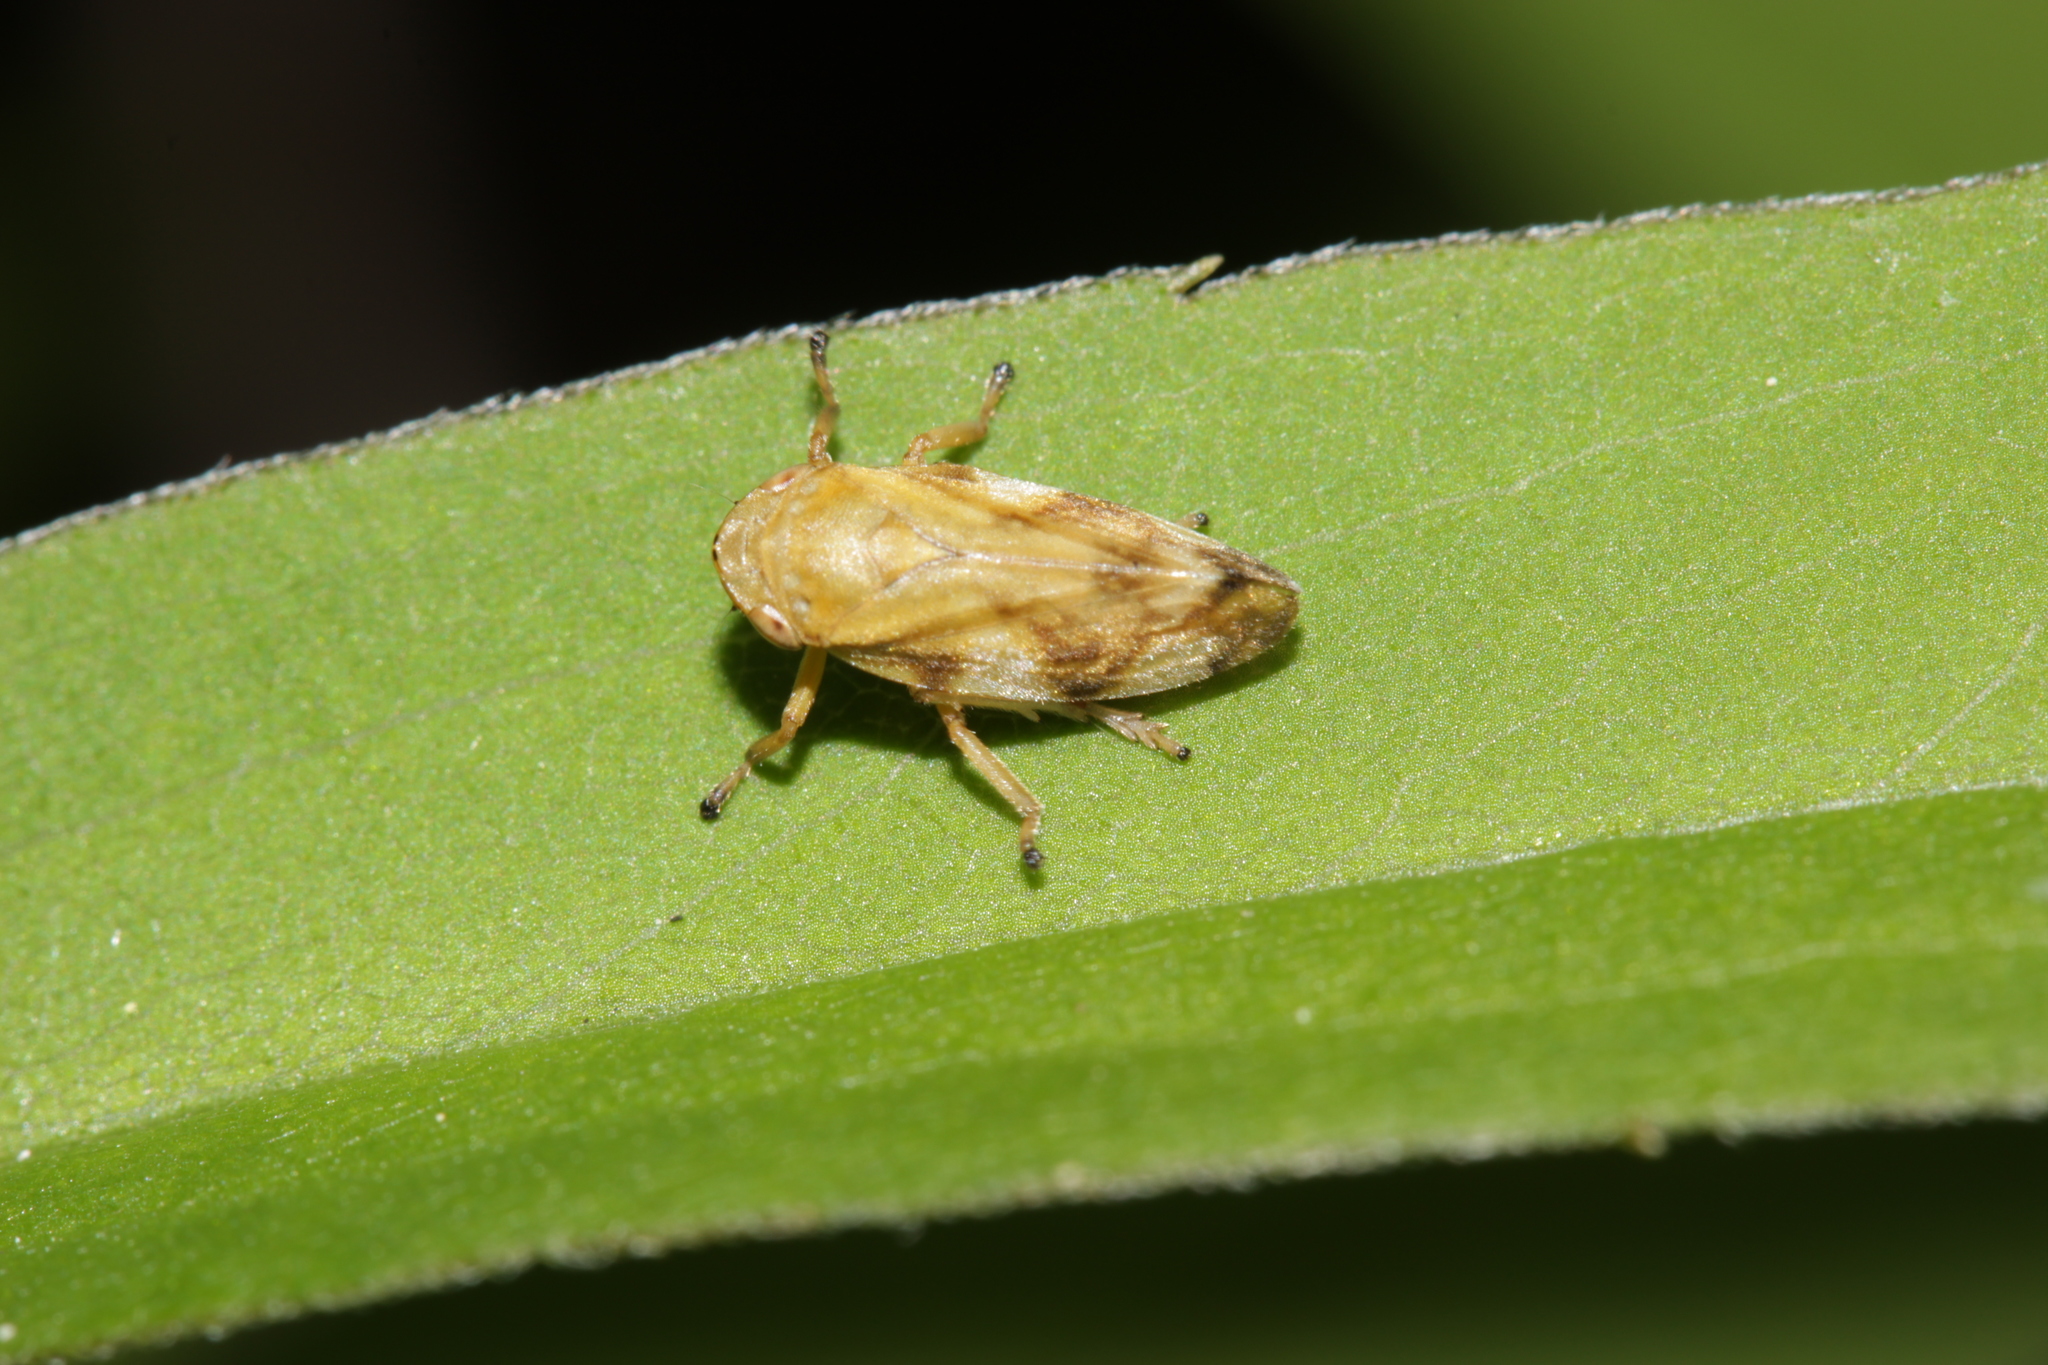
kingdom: Animalia
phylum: Arthropoda
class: Insecta
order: Hemiptera
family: Aphrophoridae
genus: Philaenus
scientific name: Philaenus spumarius
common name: Meadow spittlebug
